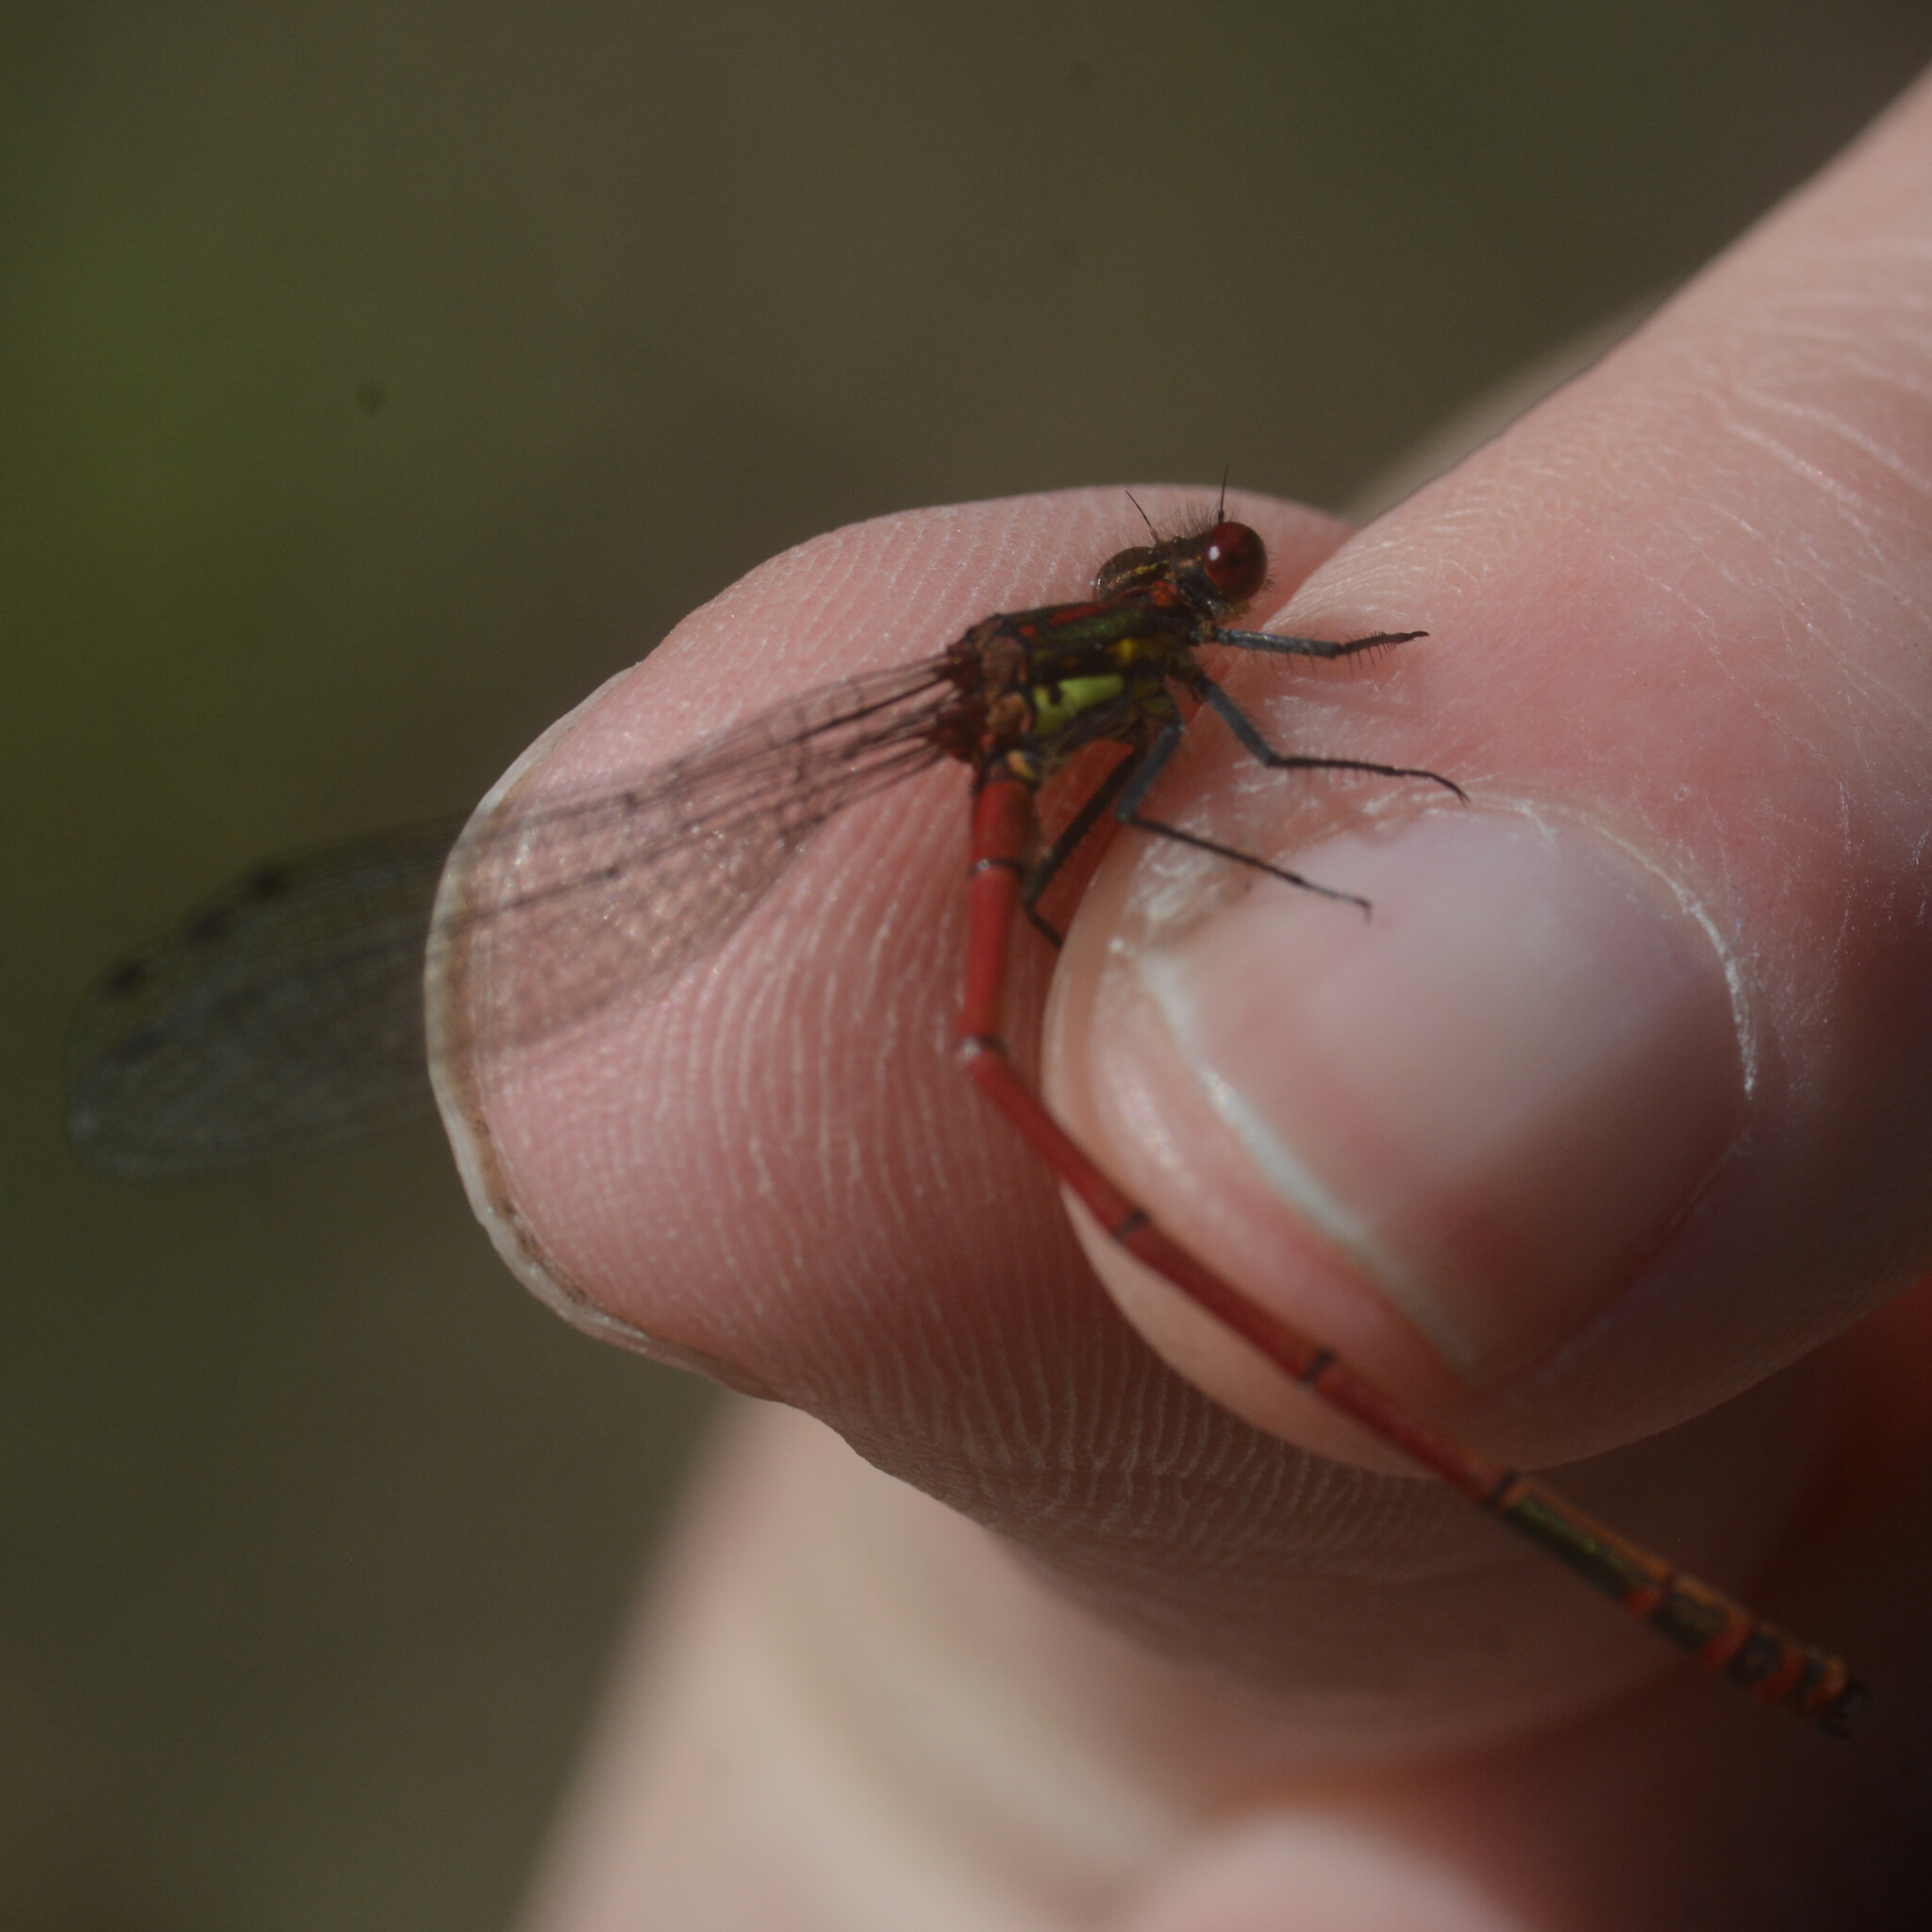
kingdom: Animalia
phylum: Arthropoda
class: Insecta
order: Odonata
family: Coenagrionidae
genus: Pyrrhosoma
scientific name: Pyrrhosoma nymphula
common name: Large red damsel
